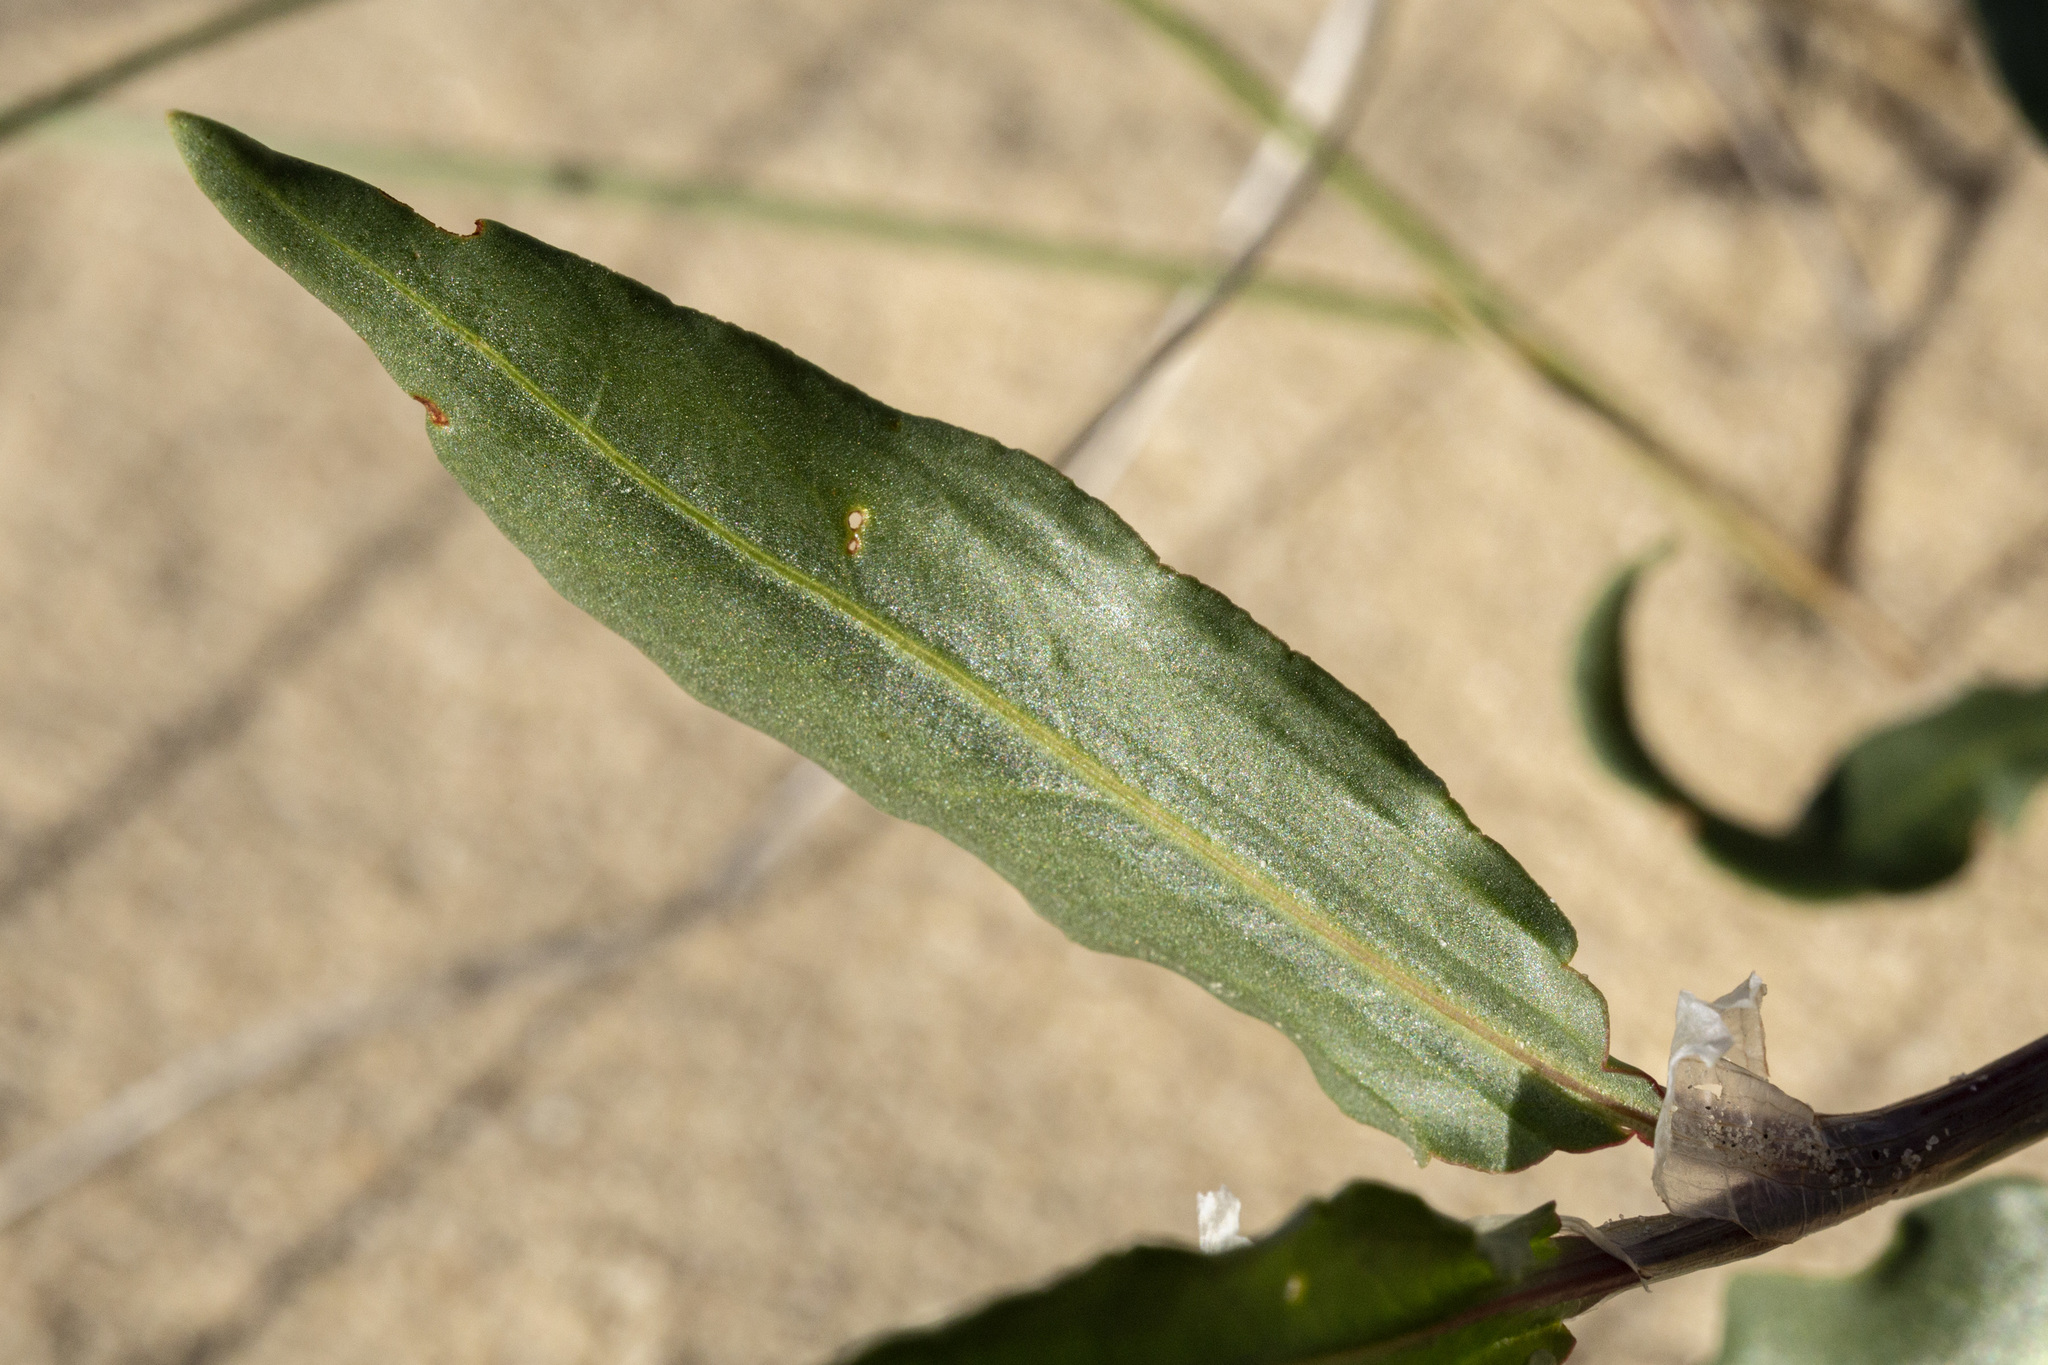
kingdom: Plantae
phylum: Tracheophyta
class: Magnoliopsida
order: Caryophyllales
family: Polygonaceae
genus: Rumex
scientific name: Rumex venosus
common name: Winged dock
